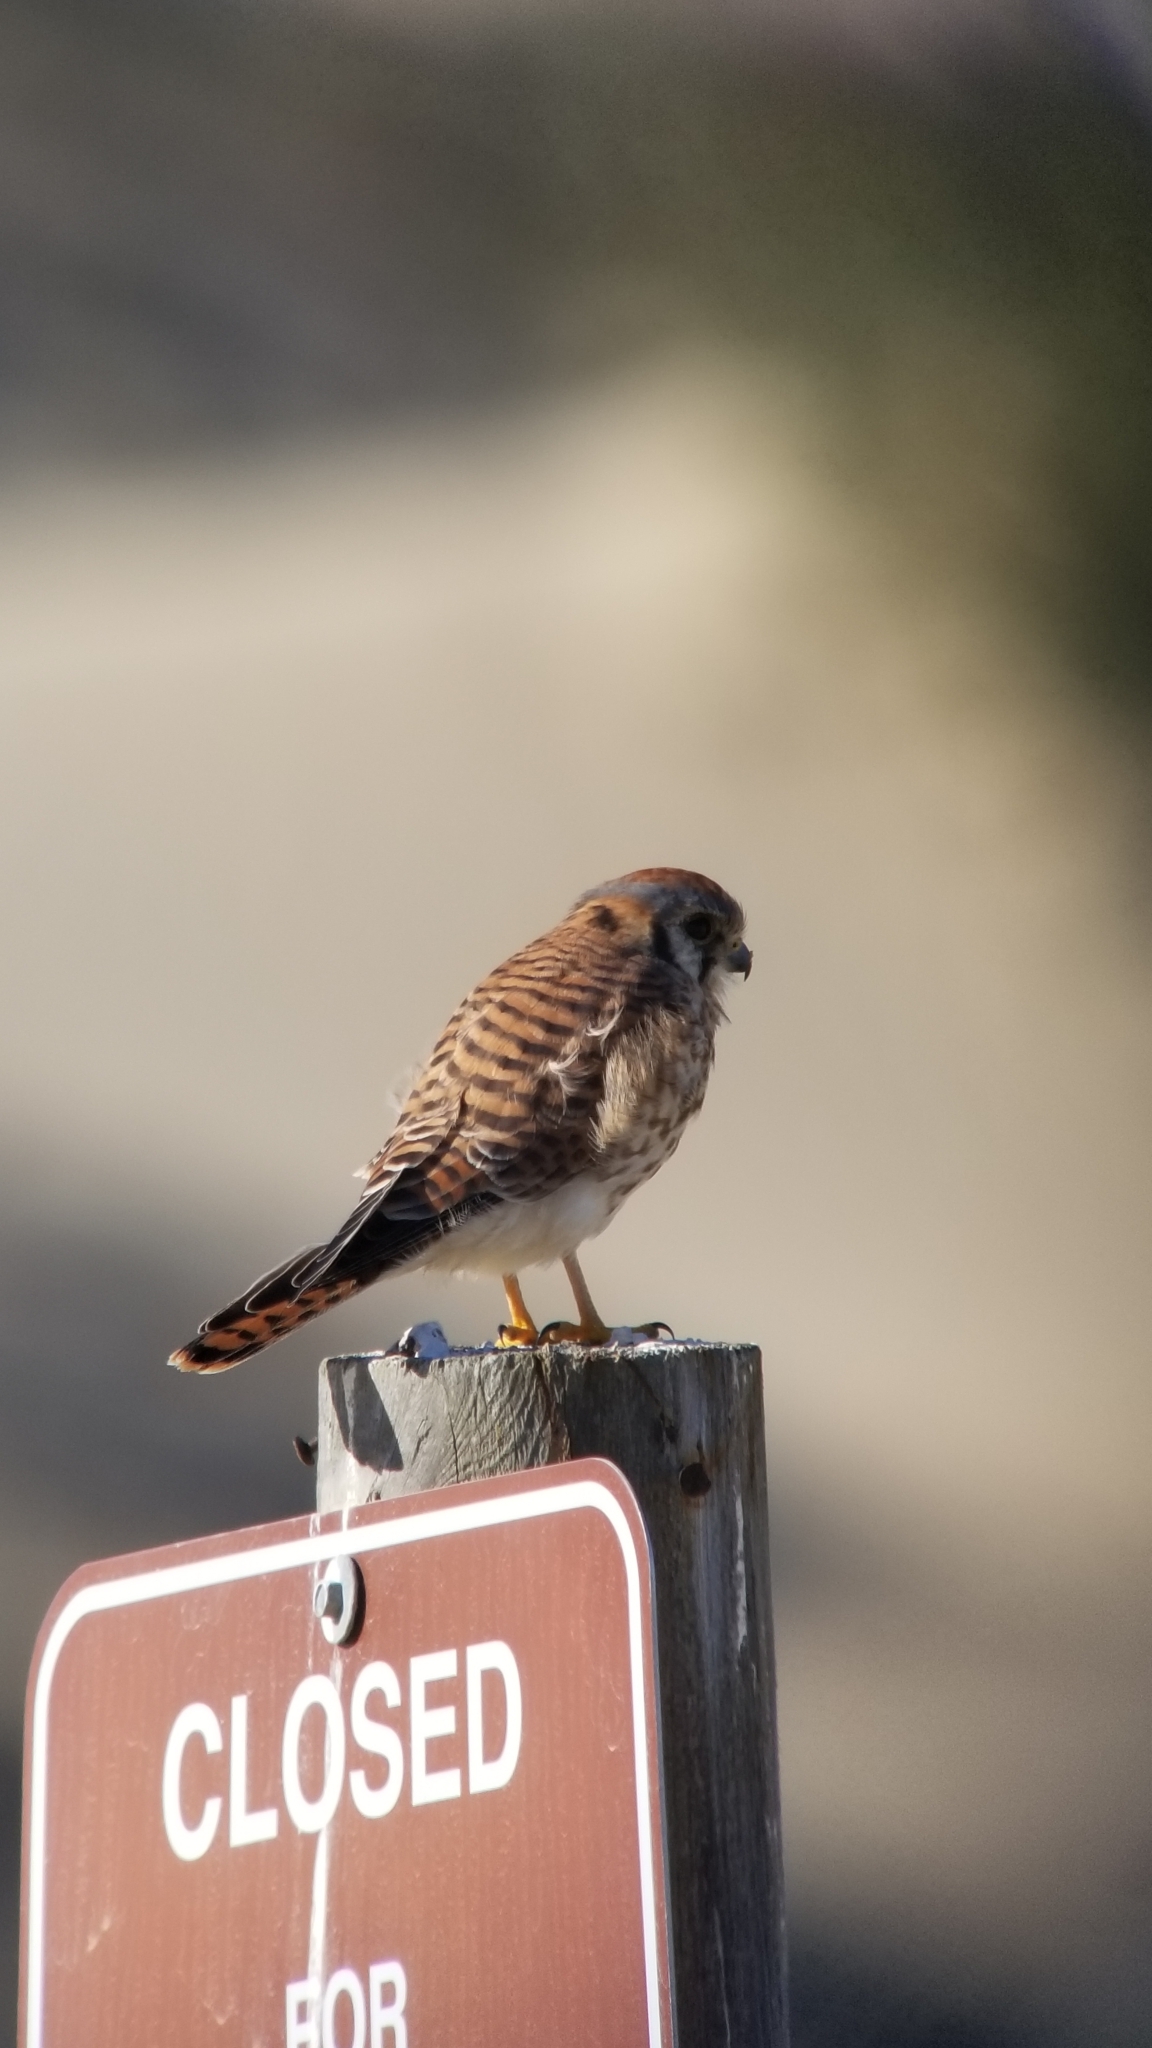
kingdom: Animalia
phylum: Chordata
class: Aves
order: Falconiformes
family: Falconidae
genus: Falco
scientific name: Falco sparverius
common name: American kestrel
